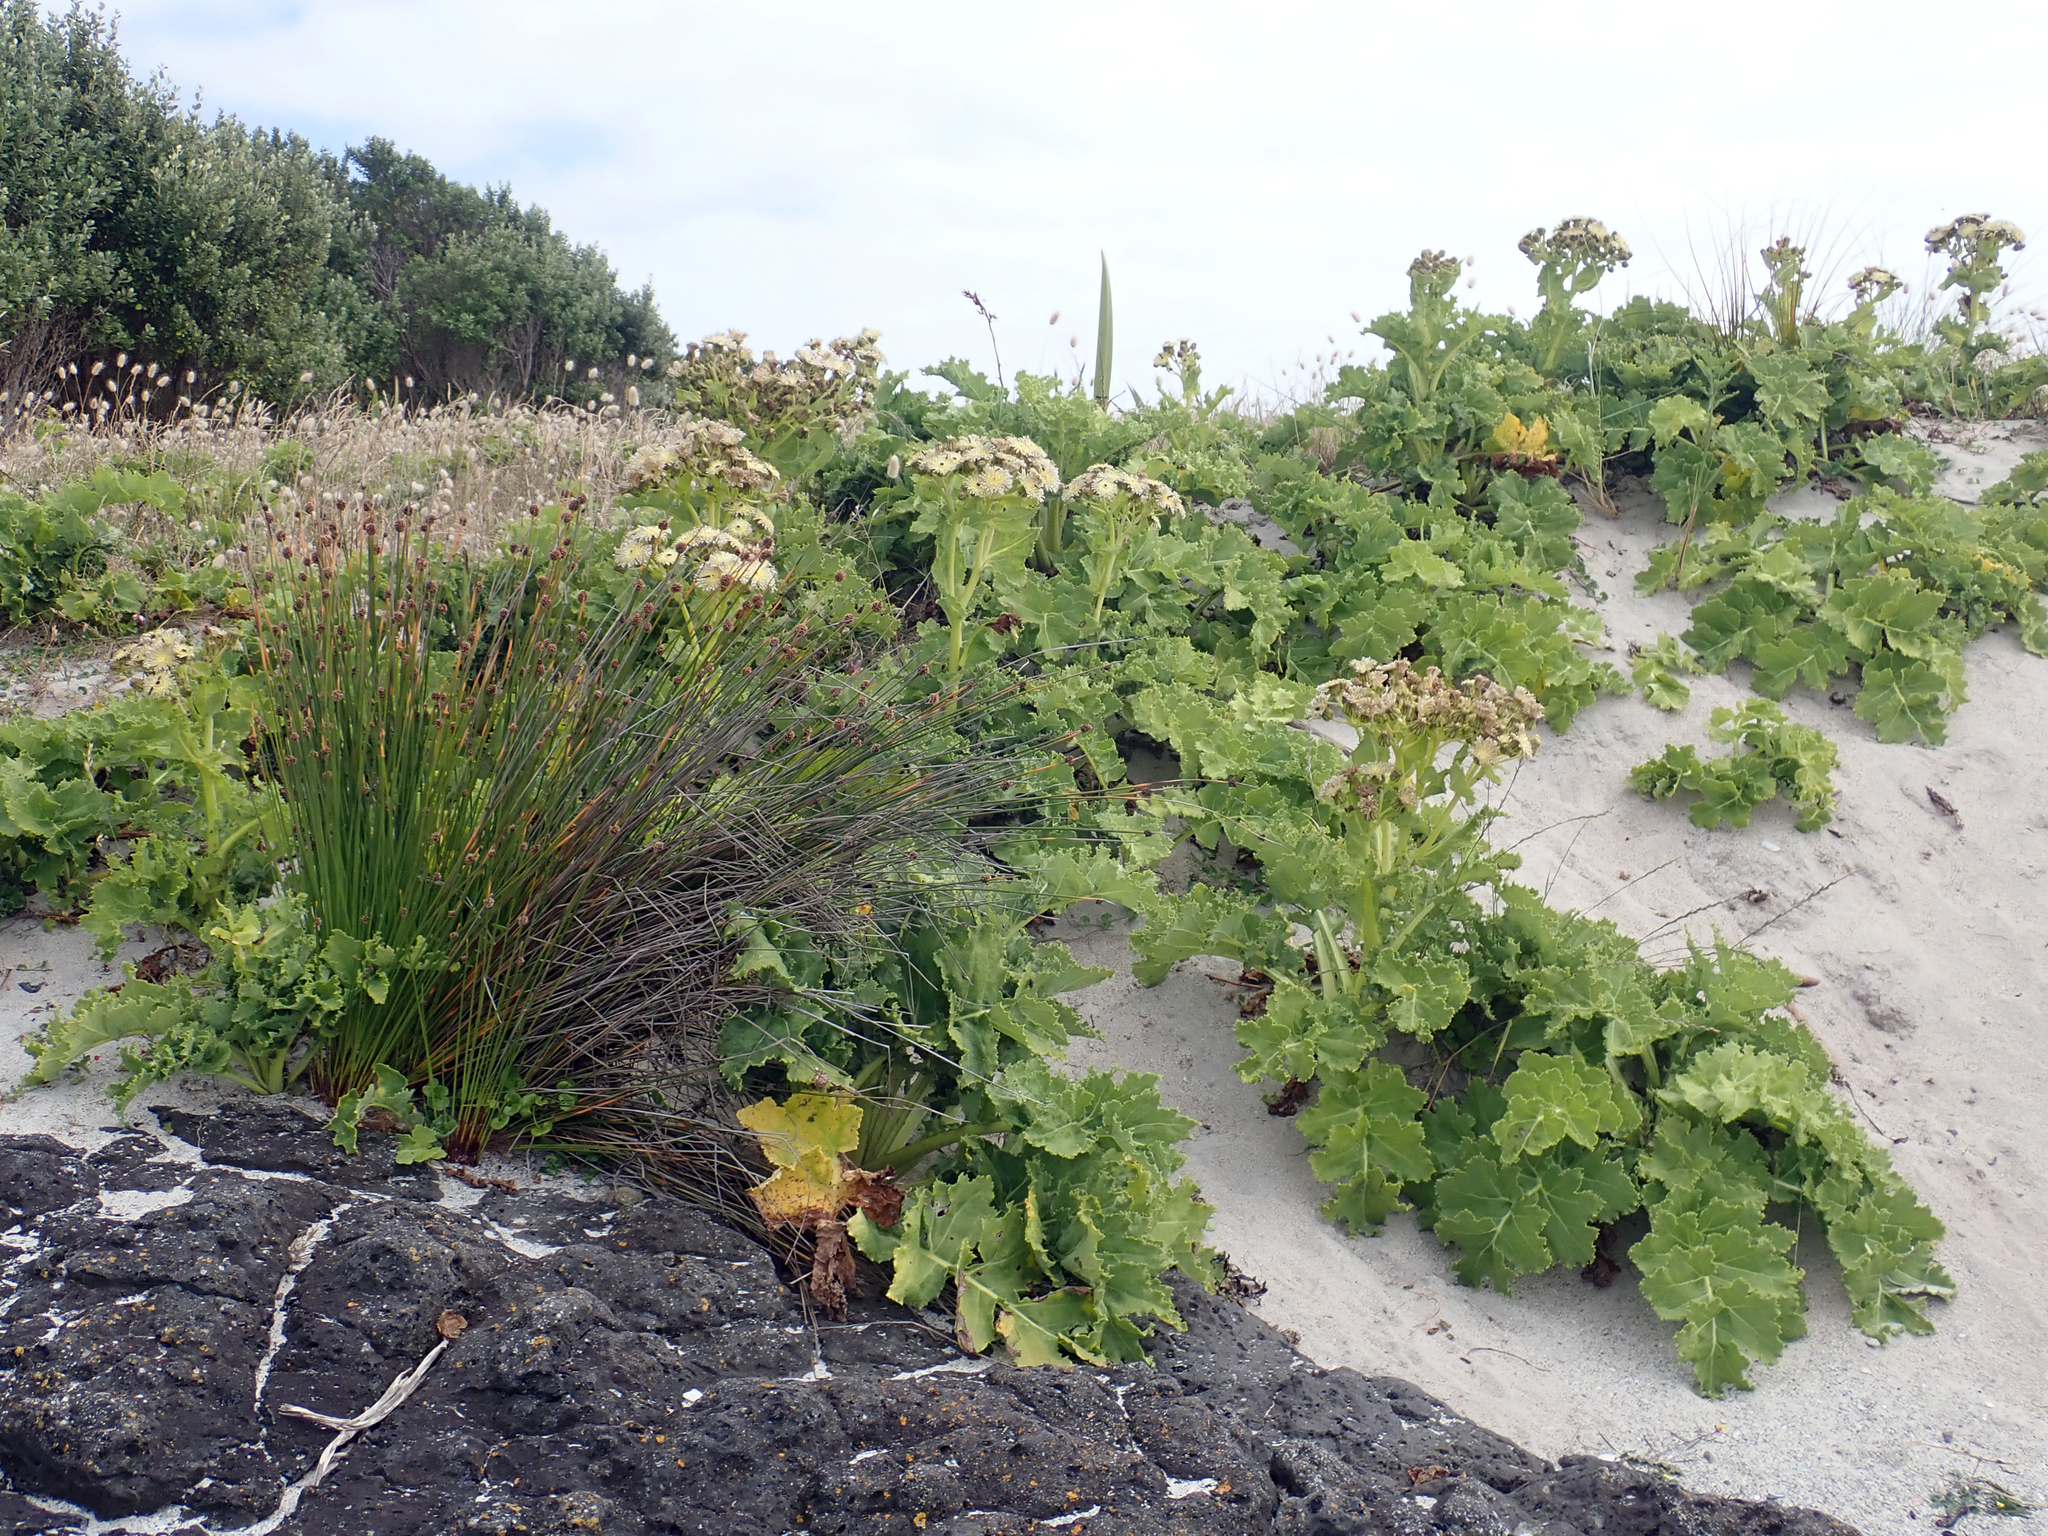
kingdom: Plantae
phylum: Tracheophyta
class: Magnoliopsida
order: Asterales
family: Asteraceae
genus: Sonchus
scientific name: Sonchus grandifolius
